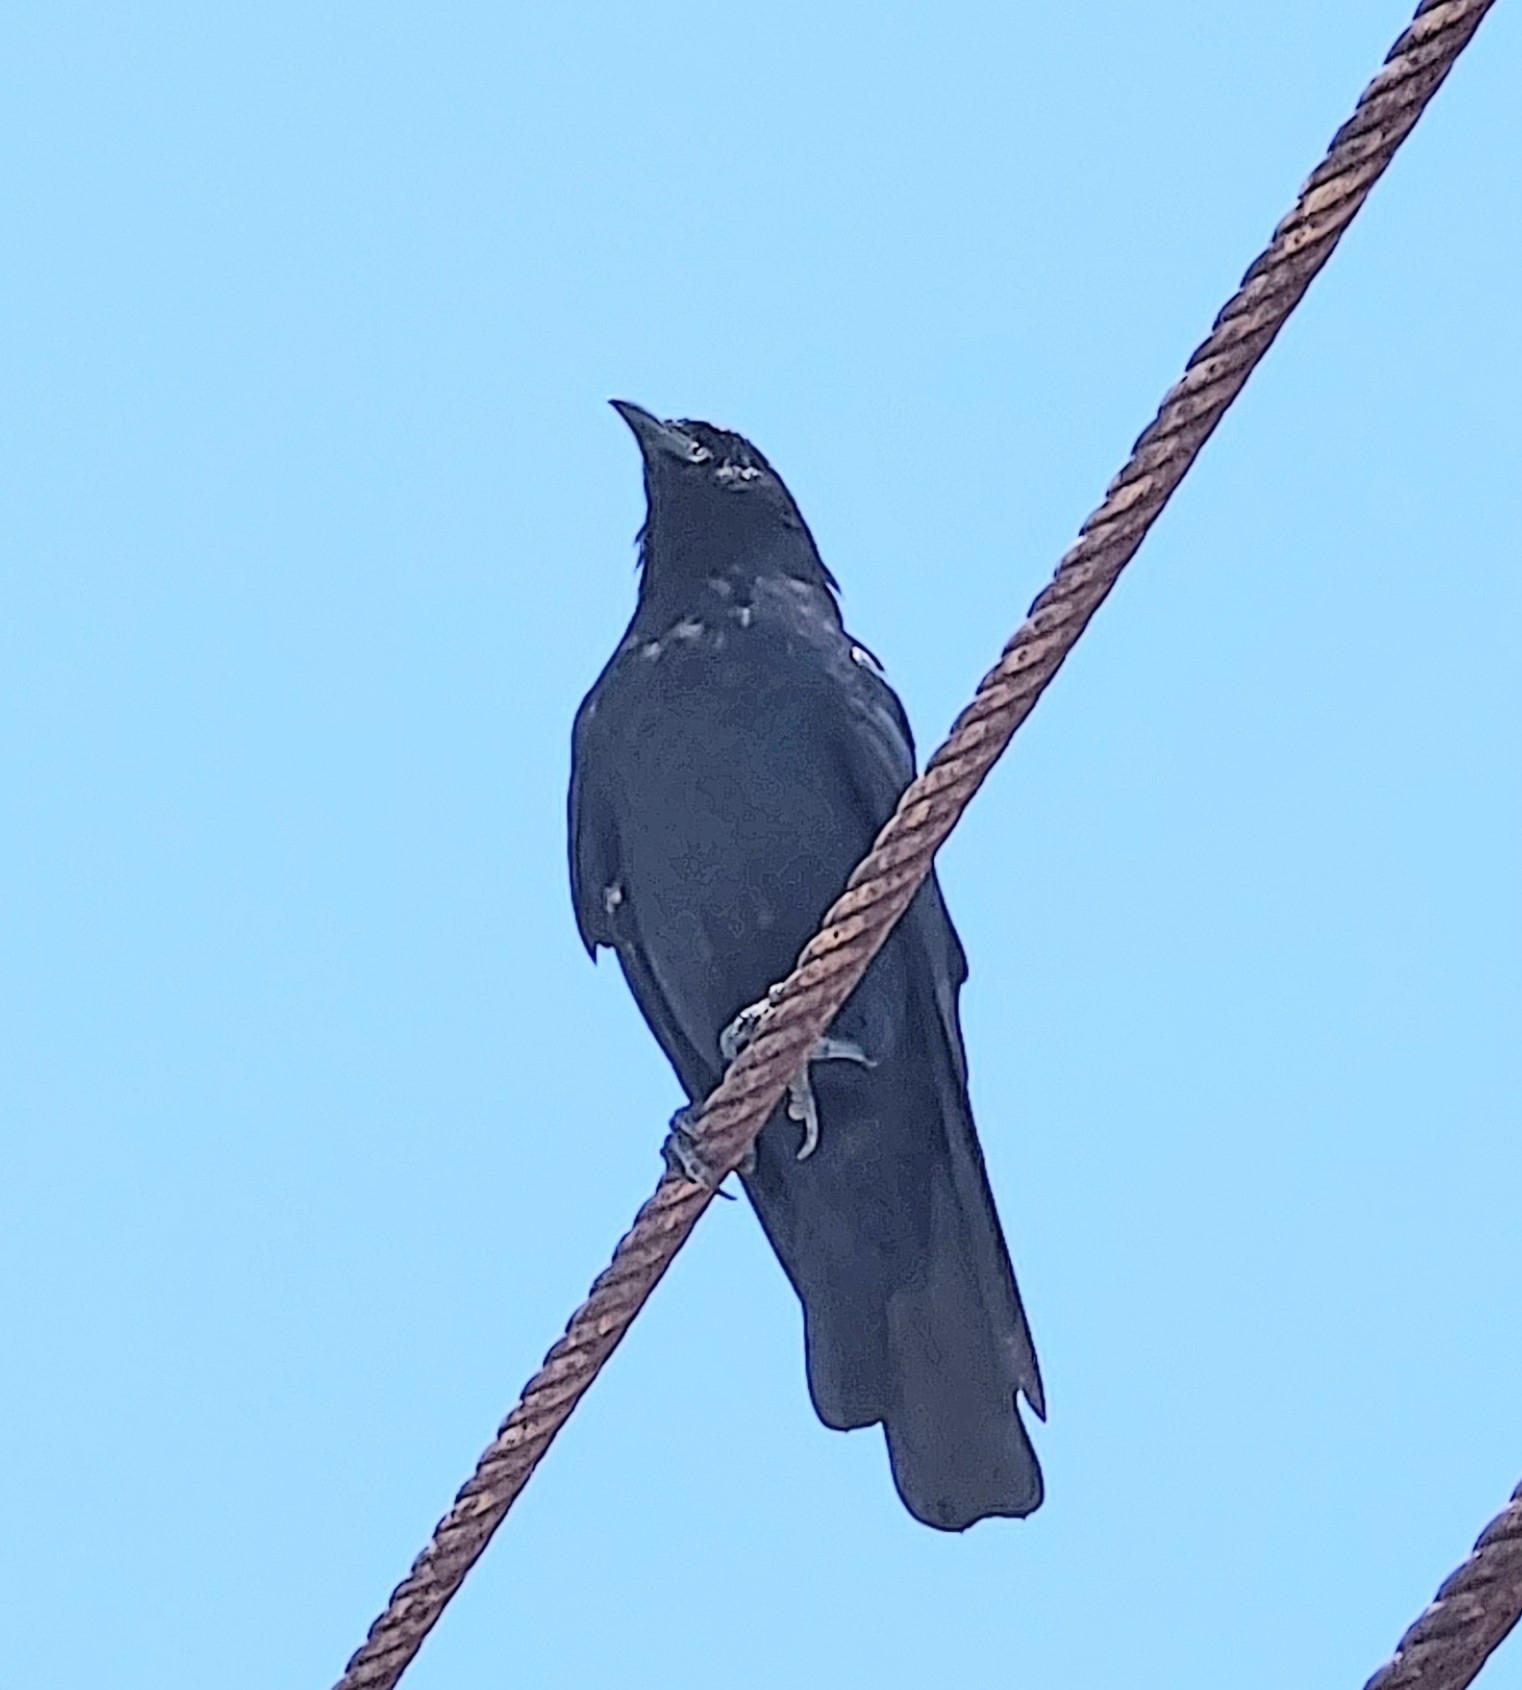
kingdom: Animalia
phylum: Chordata
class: Aves
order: Passeriformes
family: Corvidae
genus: Corvus
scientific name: Corvus sinaloae
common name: Sinaloa crow
